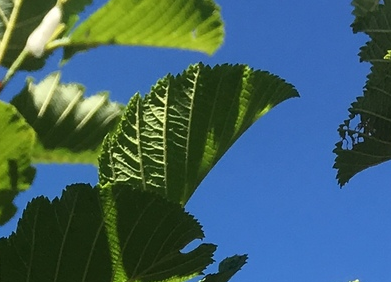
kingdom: Plantae
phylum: Tracheophyta
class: Magnoliopsida
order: Fagales
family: Betulaceae
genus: Alnus
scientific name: Alnus incana
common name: Grey alder
